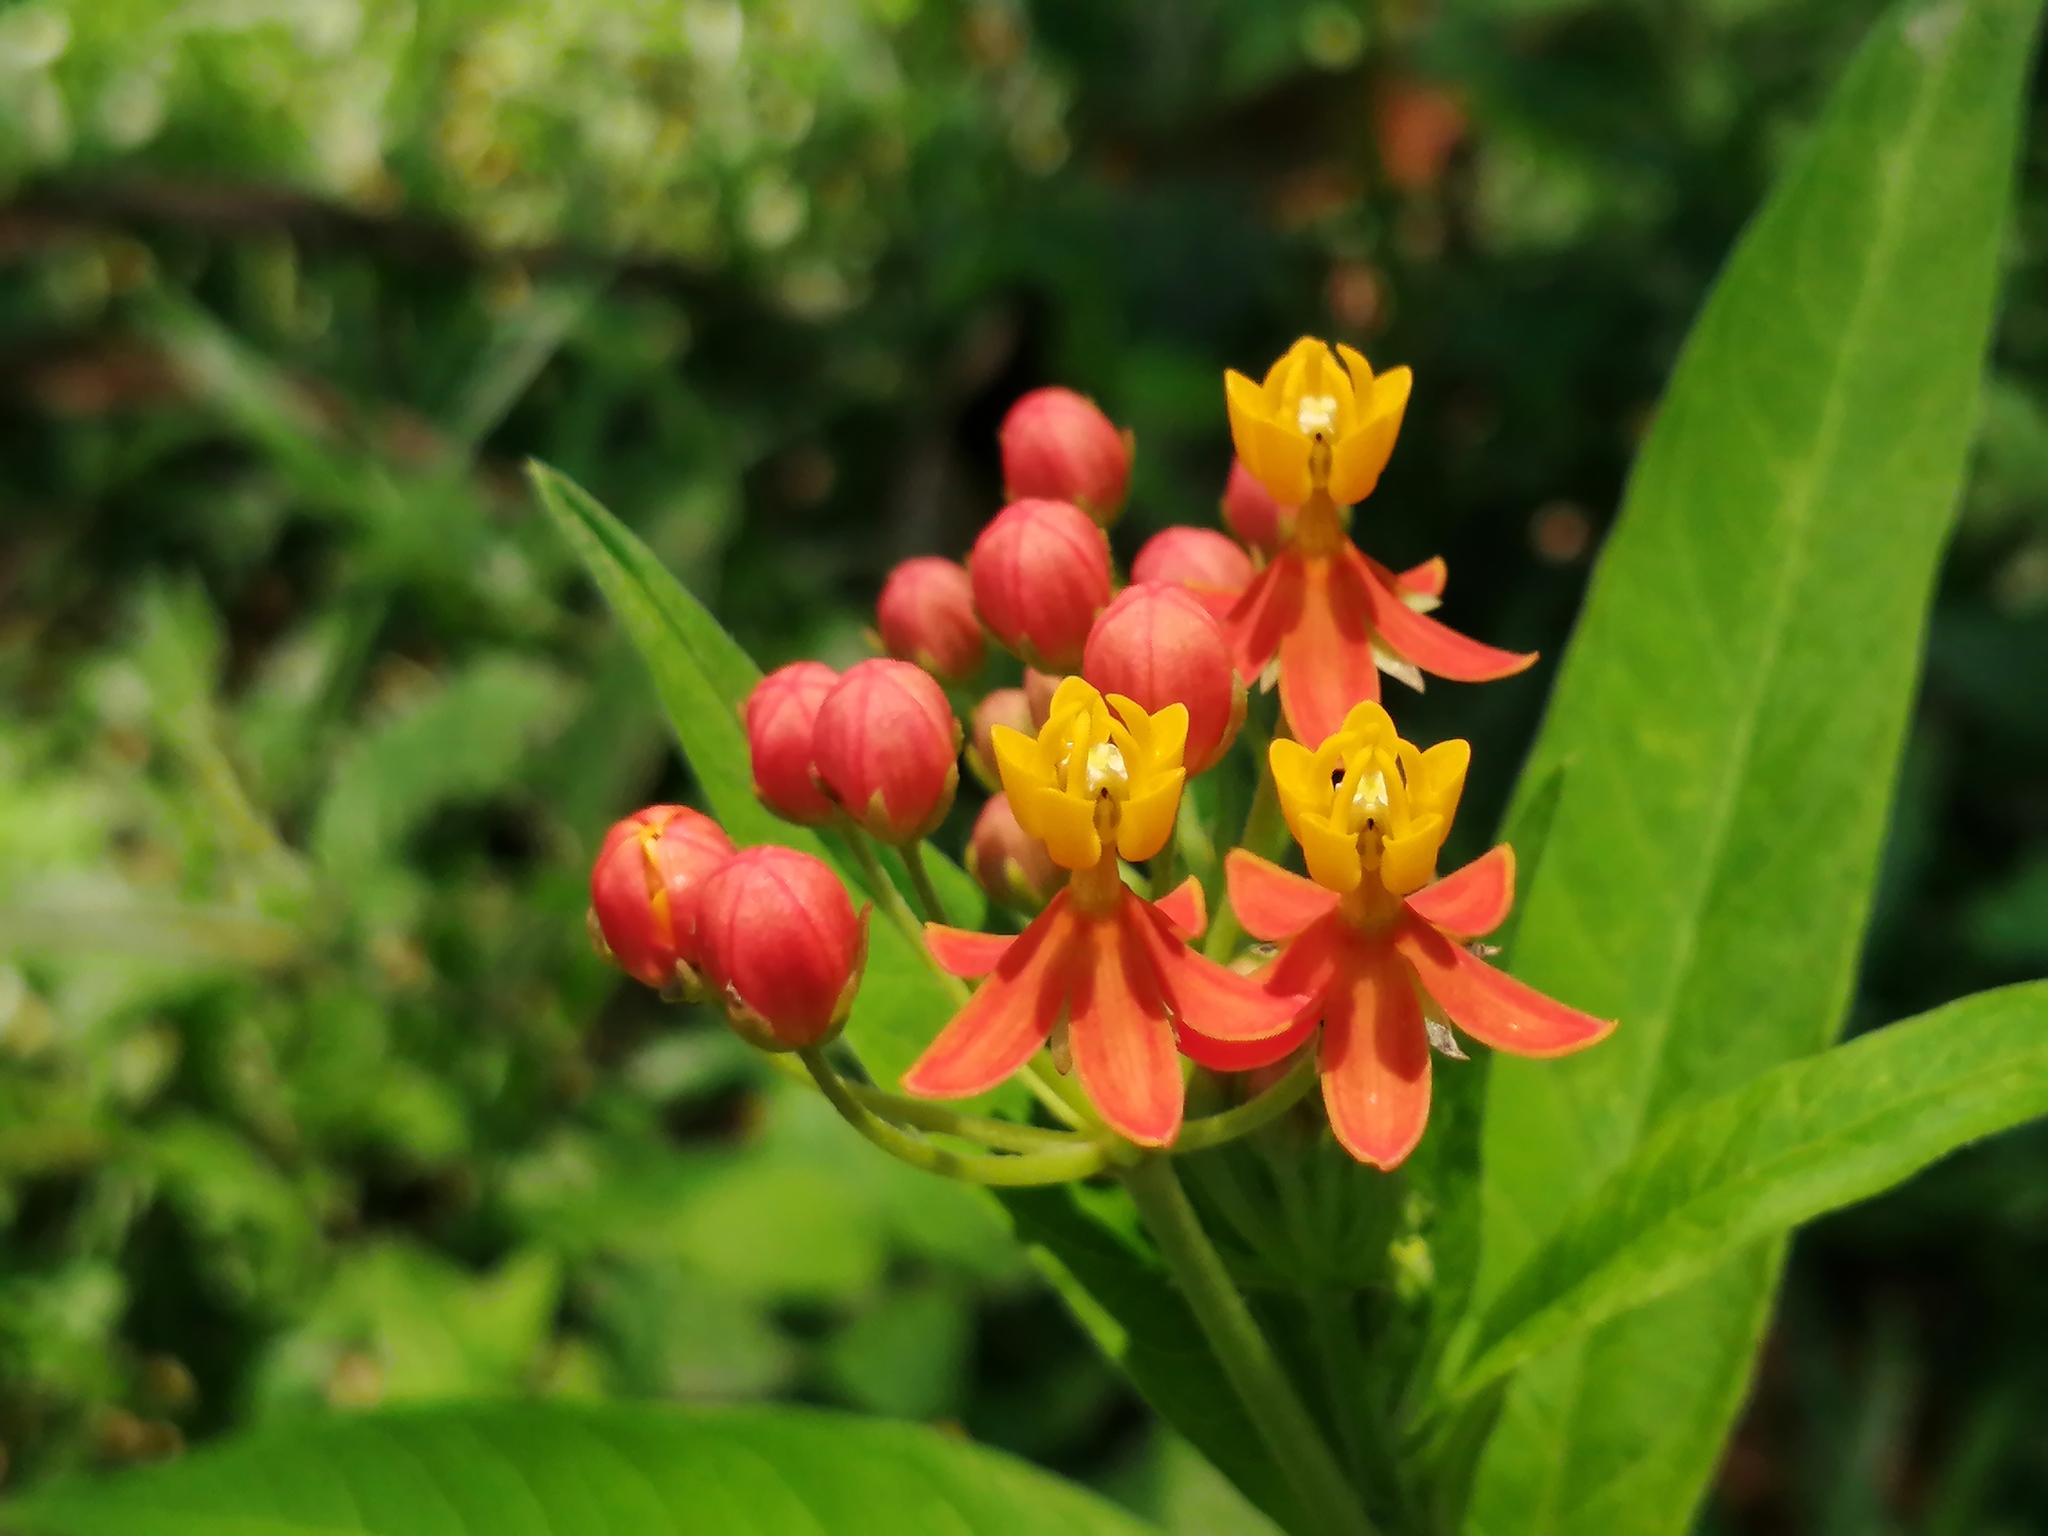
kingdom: Plantae
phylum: Tracheophyta
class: Magnoliopsida
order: Gentianales
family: Apocynaceae
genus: Asclepias
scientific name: Asclepias curassavica
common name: Bloodflower
